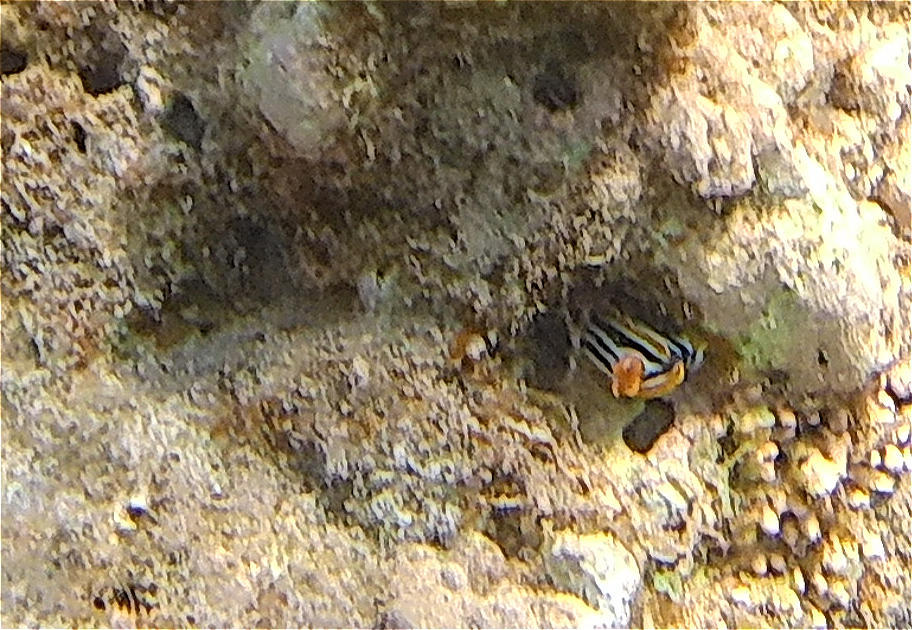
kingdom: Animalia
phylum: Mollusca
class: Gastropoda
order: Nudibranchia
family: Chromodorididae
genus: Chromodoris
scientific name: Chromodoris quadricolor
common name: Striped pyjama nudibranch
